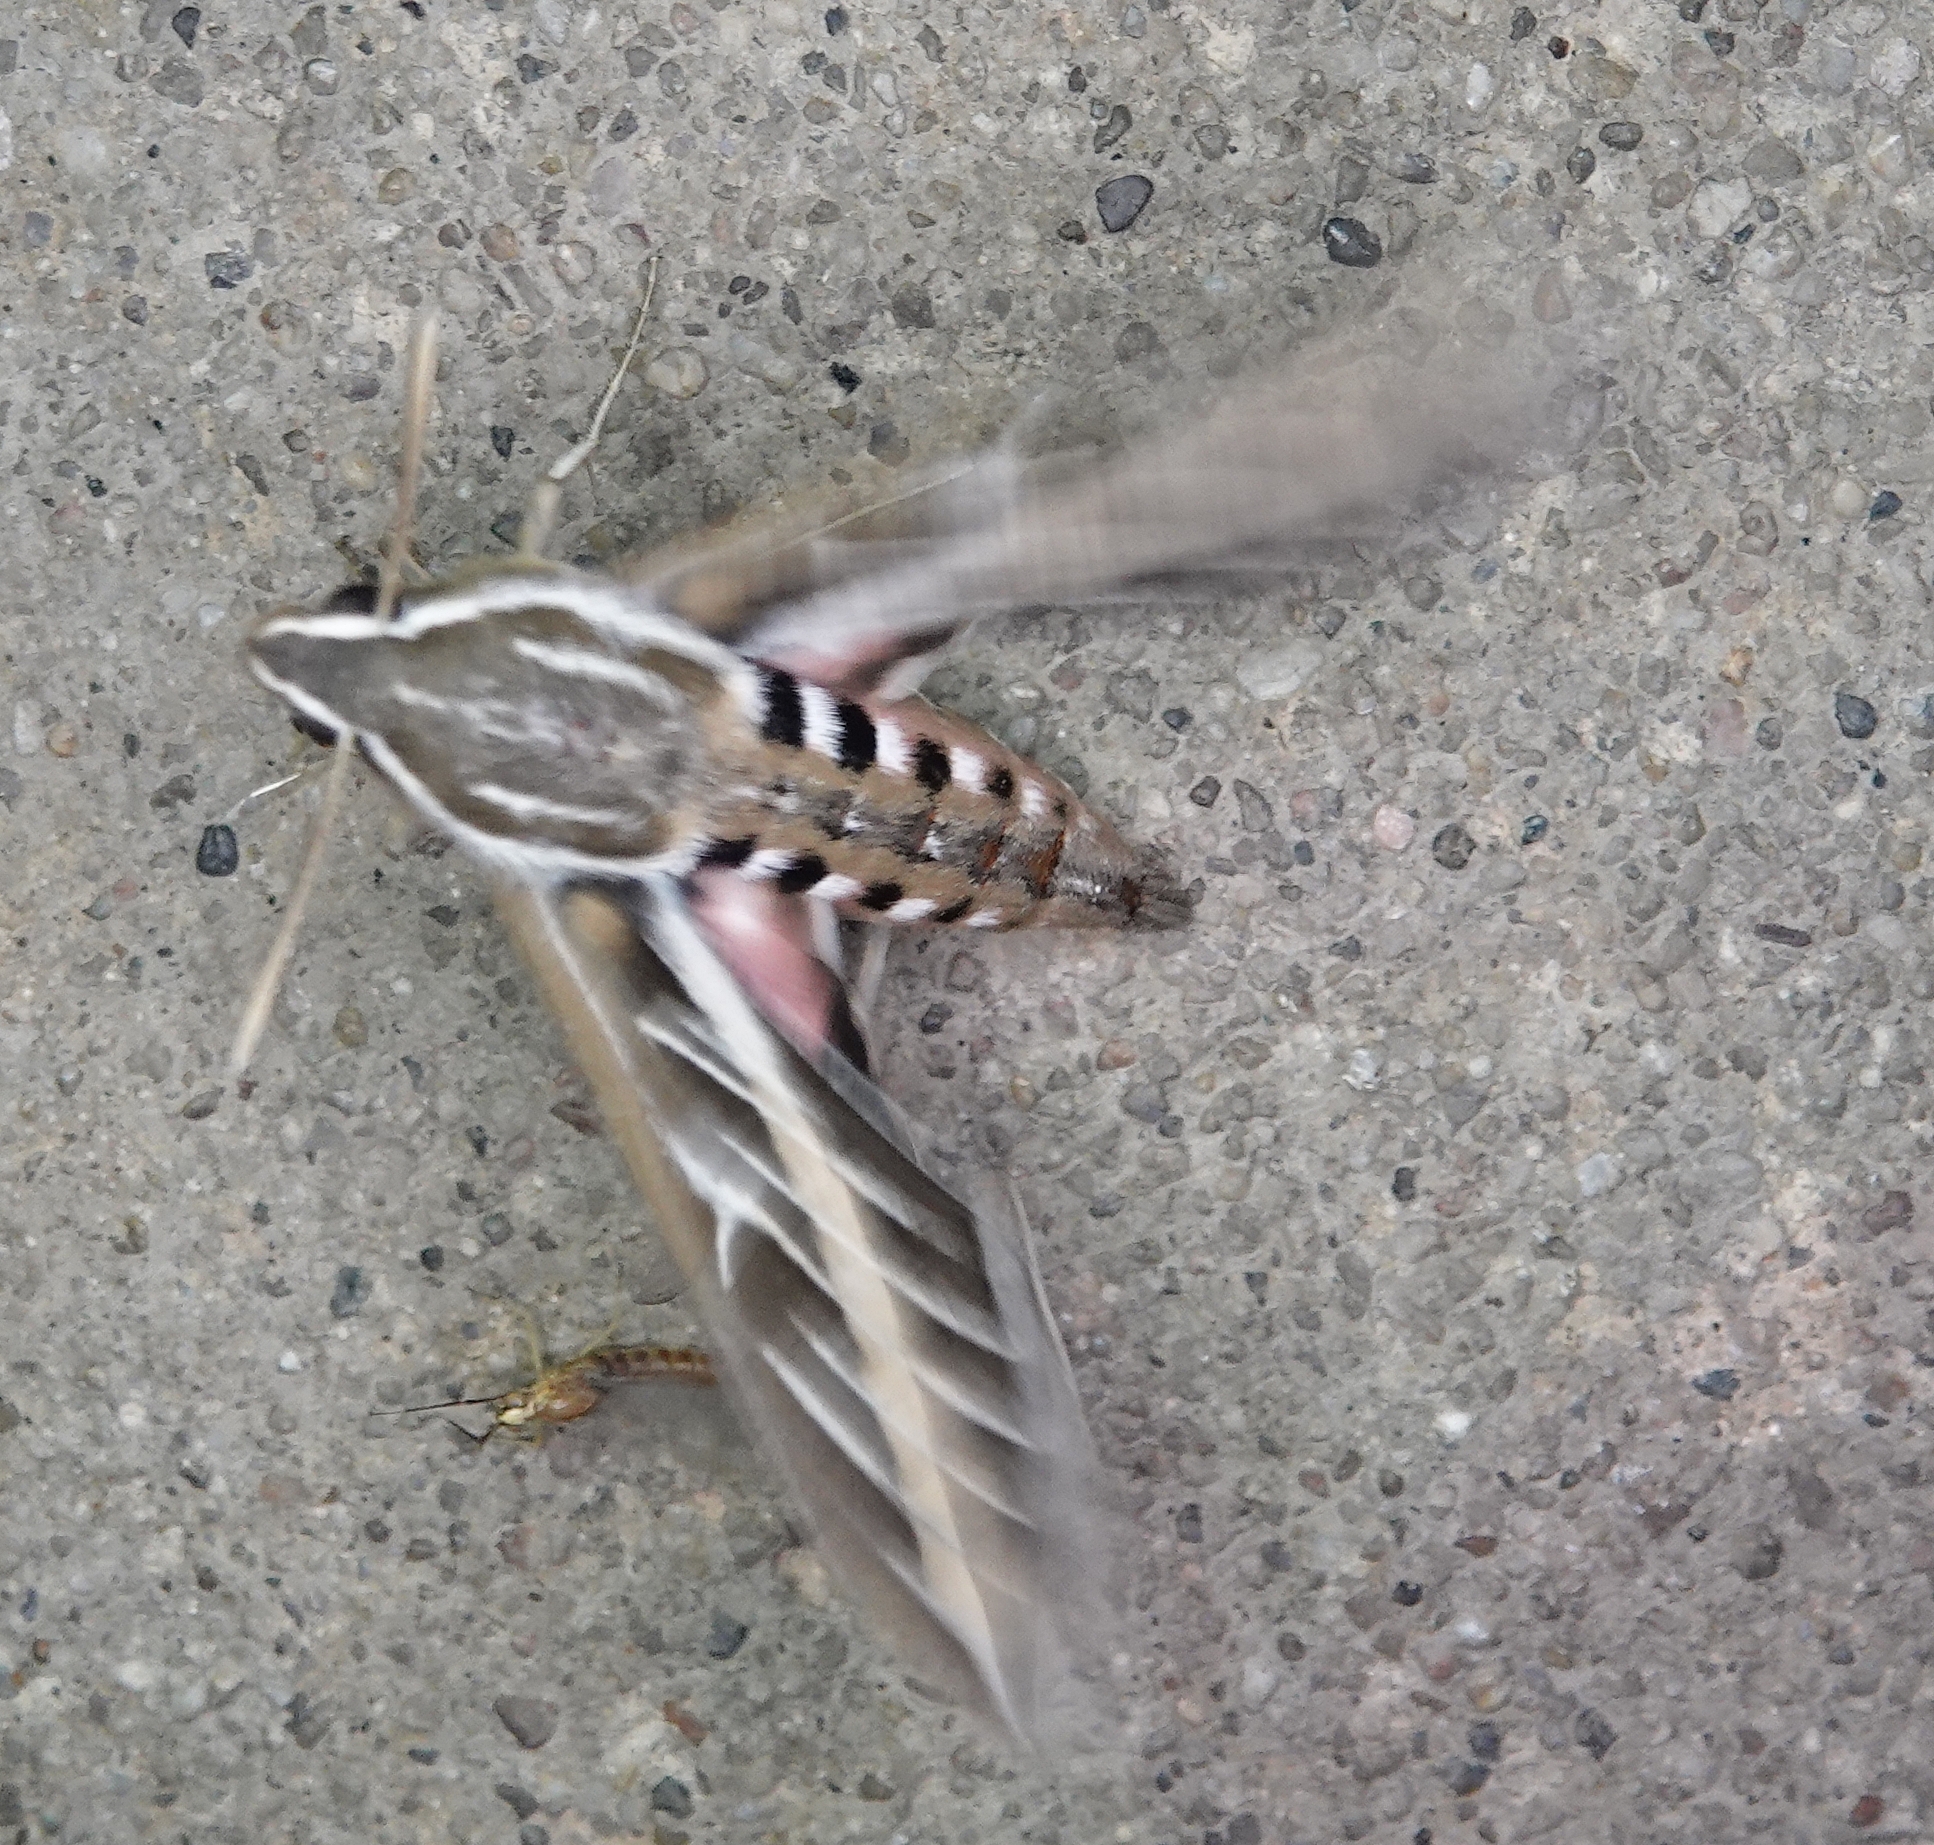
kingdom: Animalia
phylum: Arthropoda
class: Insecta
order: Lepidoptera
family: Sphingidae
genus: Hyles
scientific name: Hyles lineata
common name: White-lined sphinx
